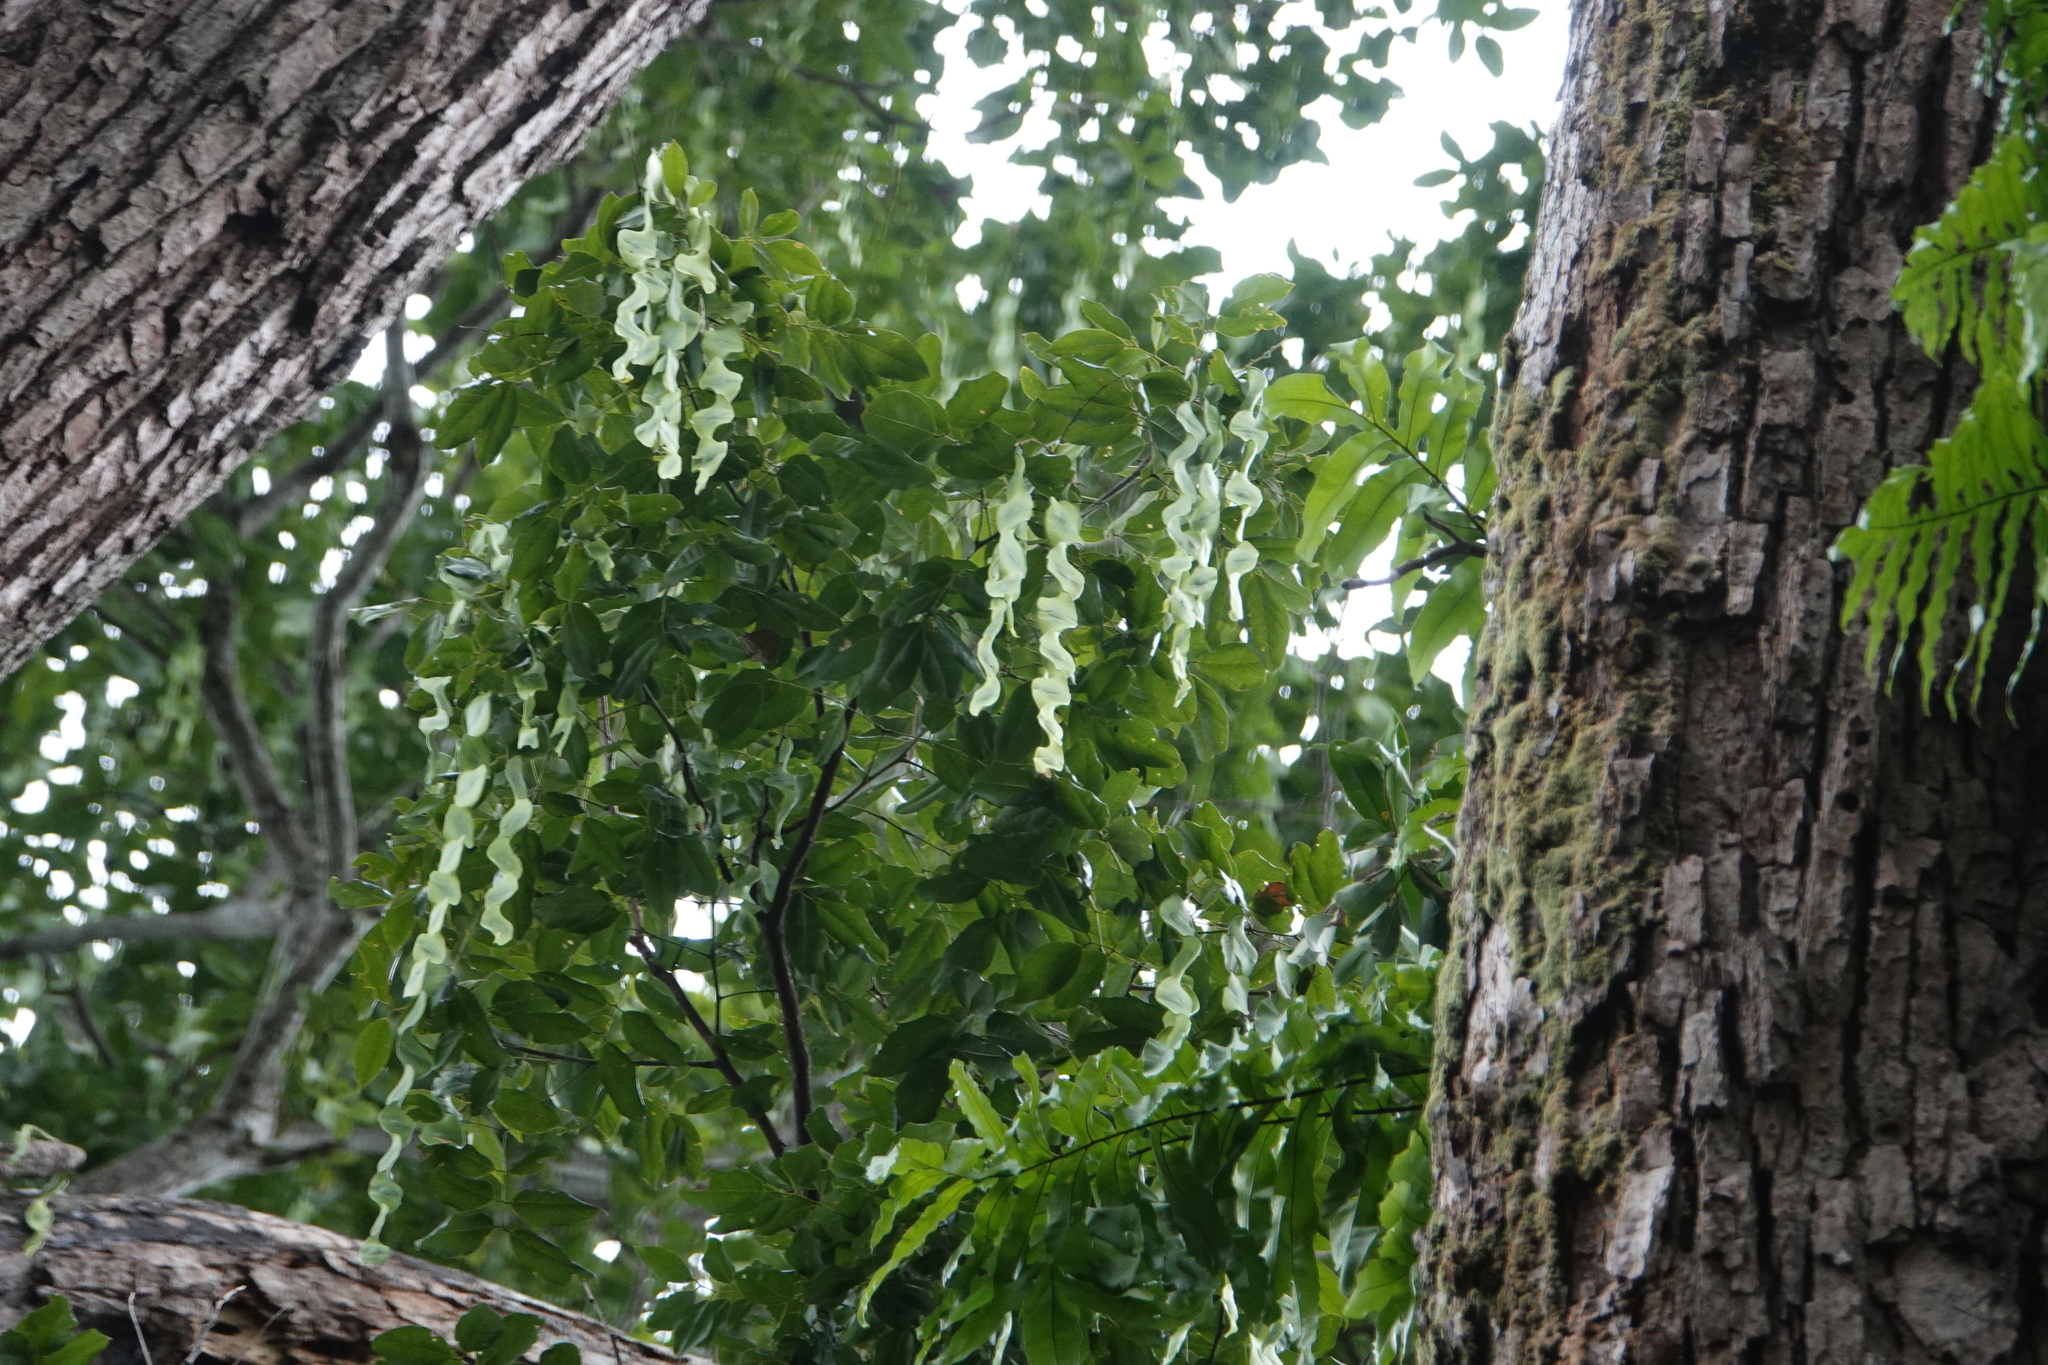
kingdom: Plantae
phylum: Tracheophyta
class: Magnoliopsida
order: Fabales
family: Fabaceae
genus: Cedrelinga
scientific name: Cedrelinga cateniformis
